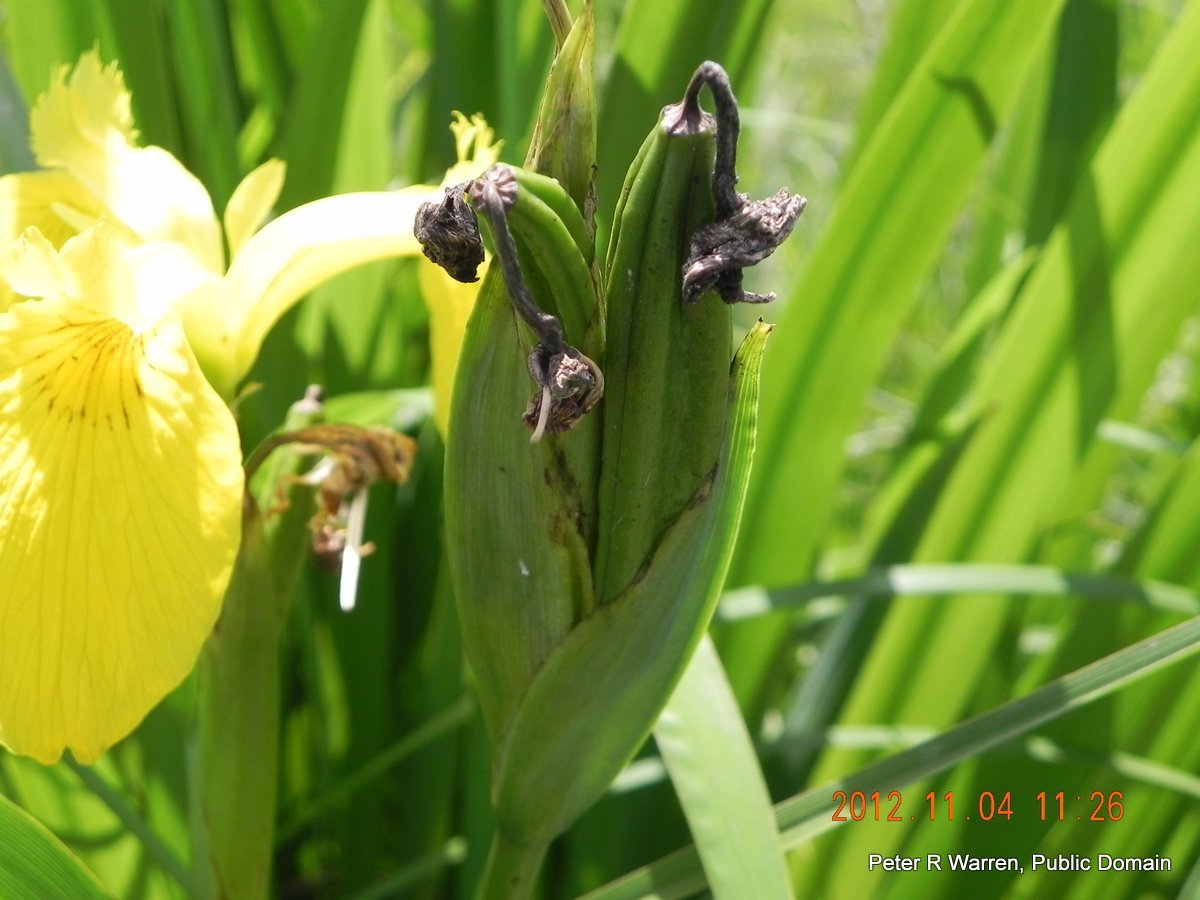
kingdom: Plantae
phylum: Tracheophyta
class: Liliopsida
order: Asparagales
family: Iridaceae
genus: Iris
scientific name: Iris pseudacorus
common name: Yellow flag
